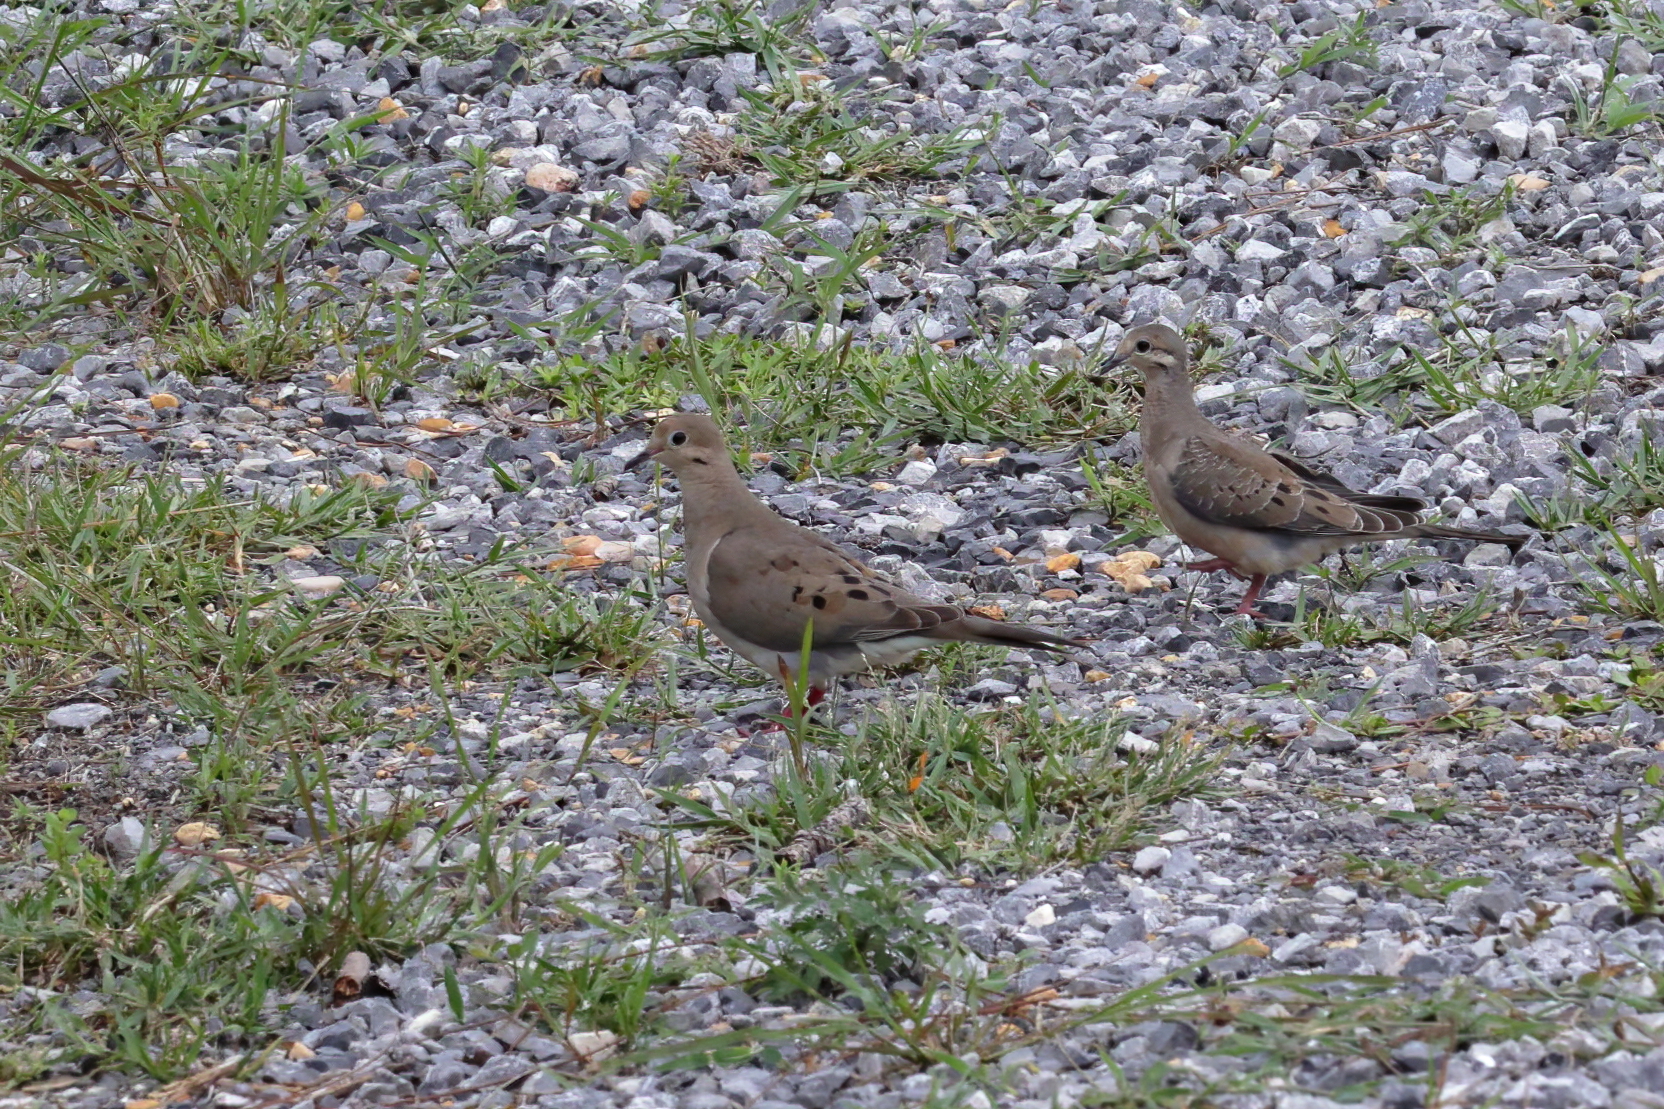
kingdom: Animalia
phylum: Chordata
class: Aves
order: Columbiformes
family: Columbidae
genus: Zenaida
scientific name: Zenaida macroura
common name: Mourning dove
